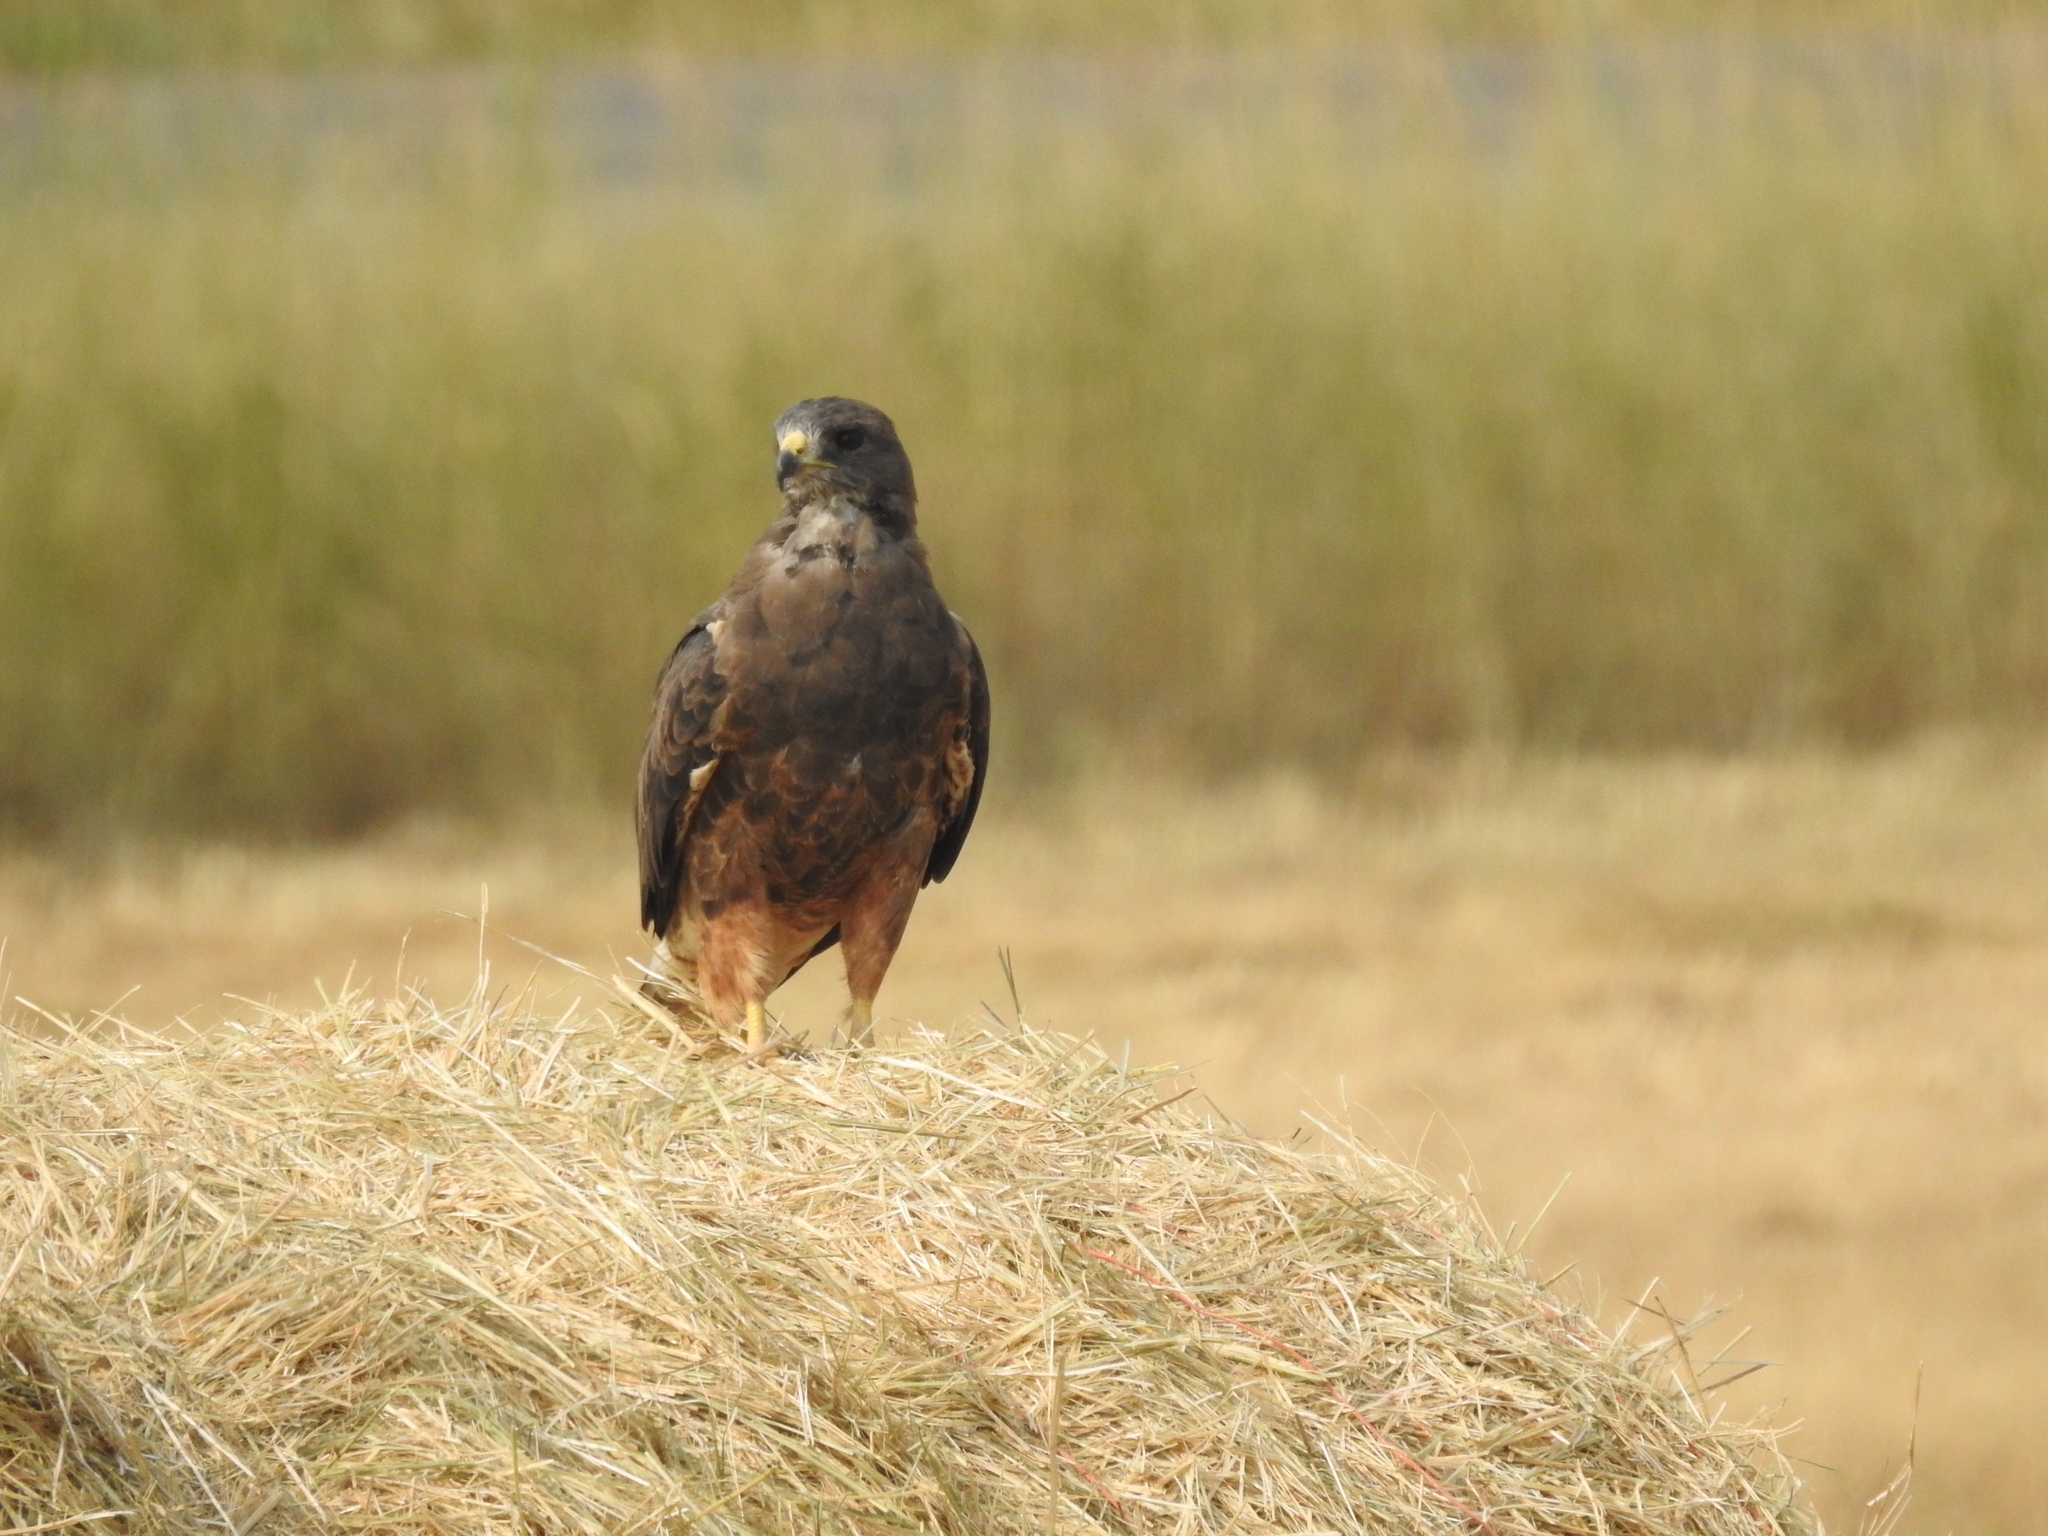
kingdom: Animalia
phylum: Chordata
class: Aves
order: Accipitriformes
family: Accipitridae
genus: Buteo
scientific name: Buteo swainsoni
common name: Swainson's hawk
